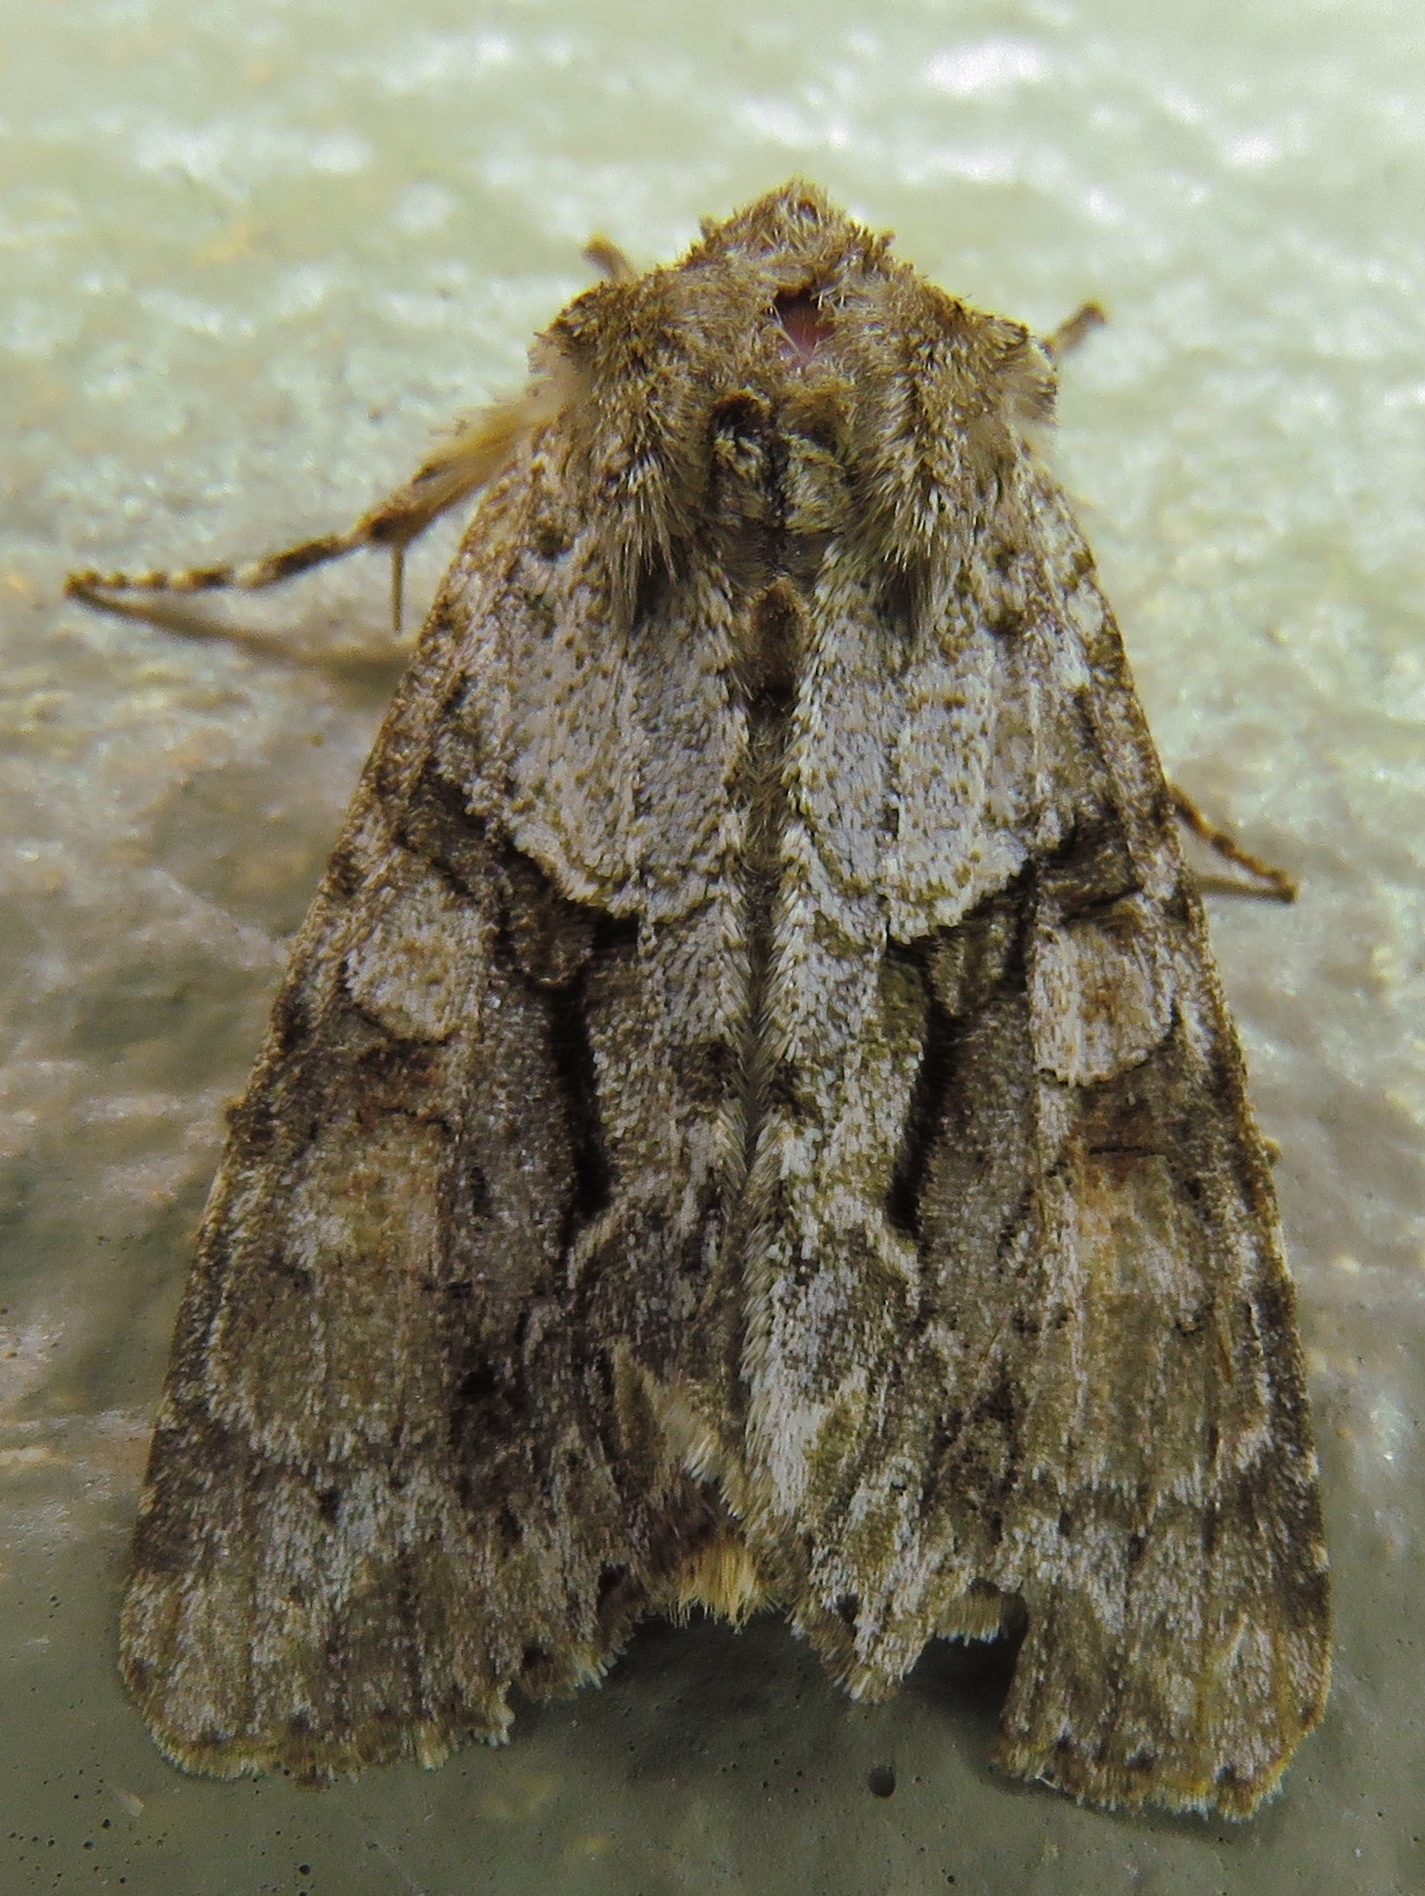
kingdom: Animalia
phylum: Arthropoda
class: Insecta
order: Lepidoptera
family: Noctuidae
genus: Achatia
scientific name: Achatia distincta
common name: Distinct quaker
